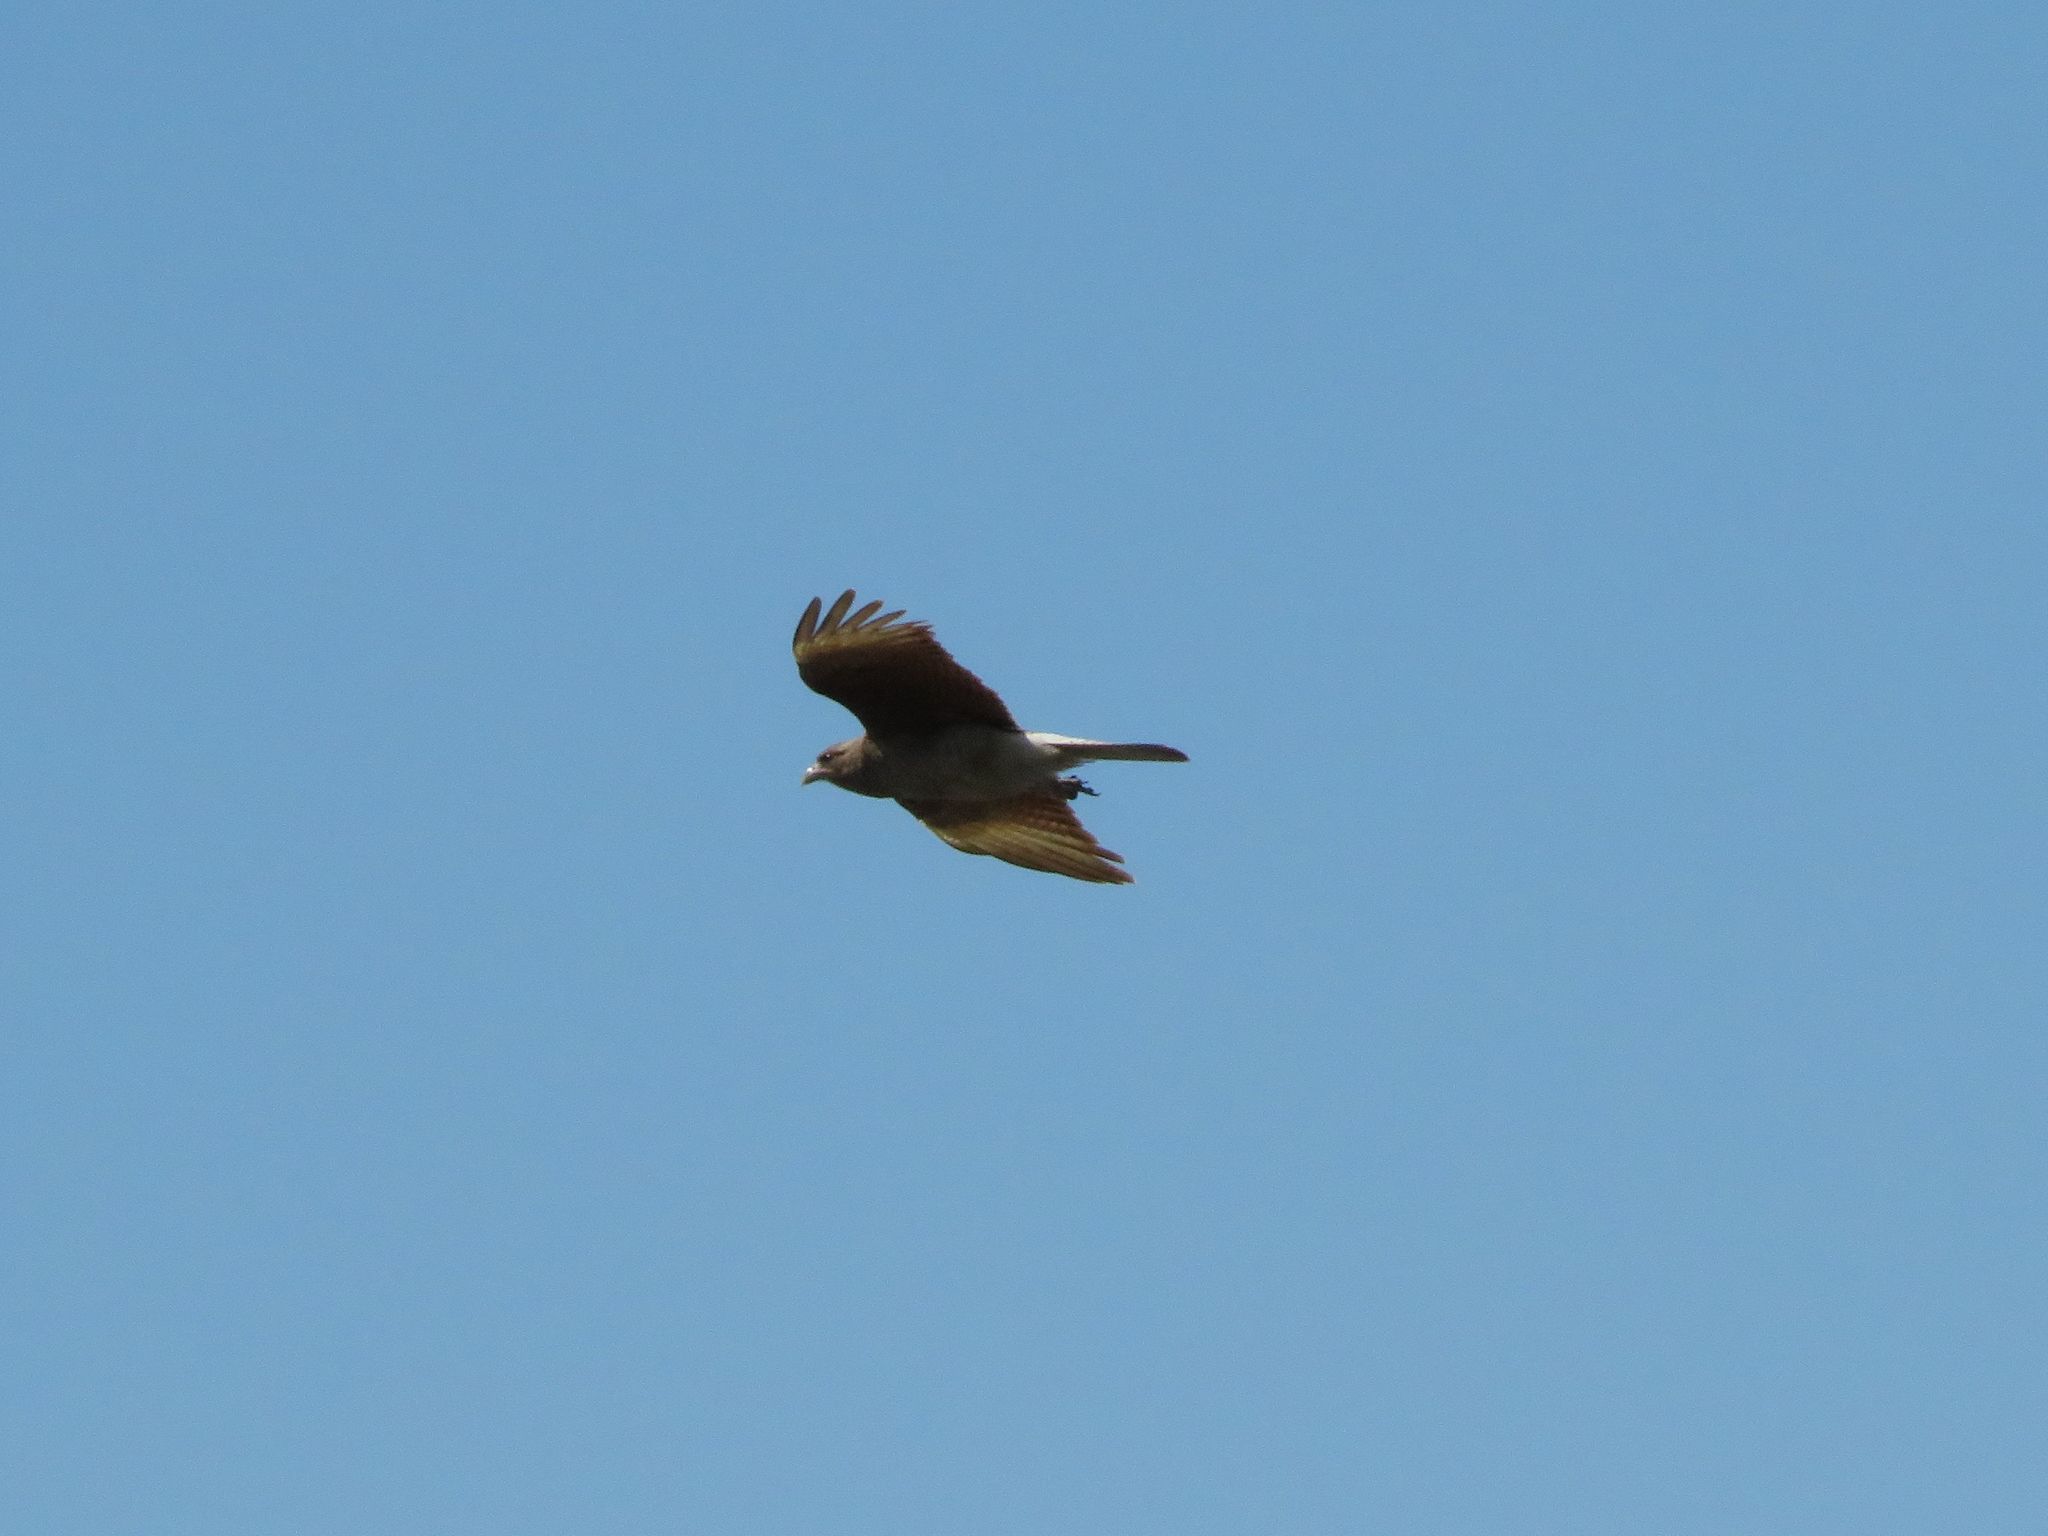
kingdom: Animalia
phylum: Chordata
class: Aves
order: Falconiformes
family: Falconidae
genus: Daptrius
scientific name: Daptrius
